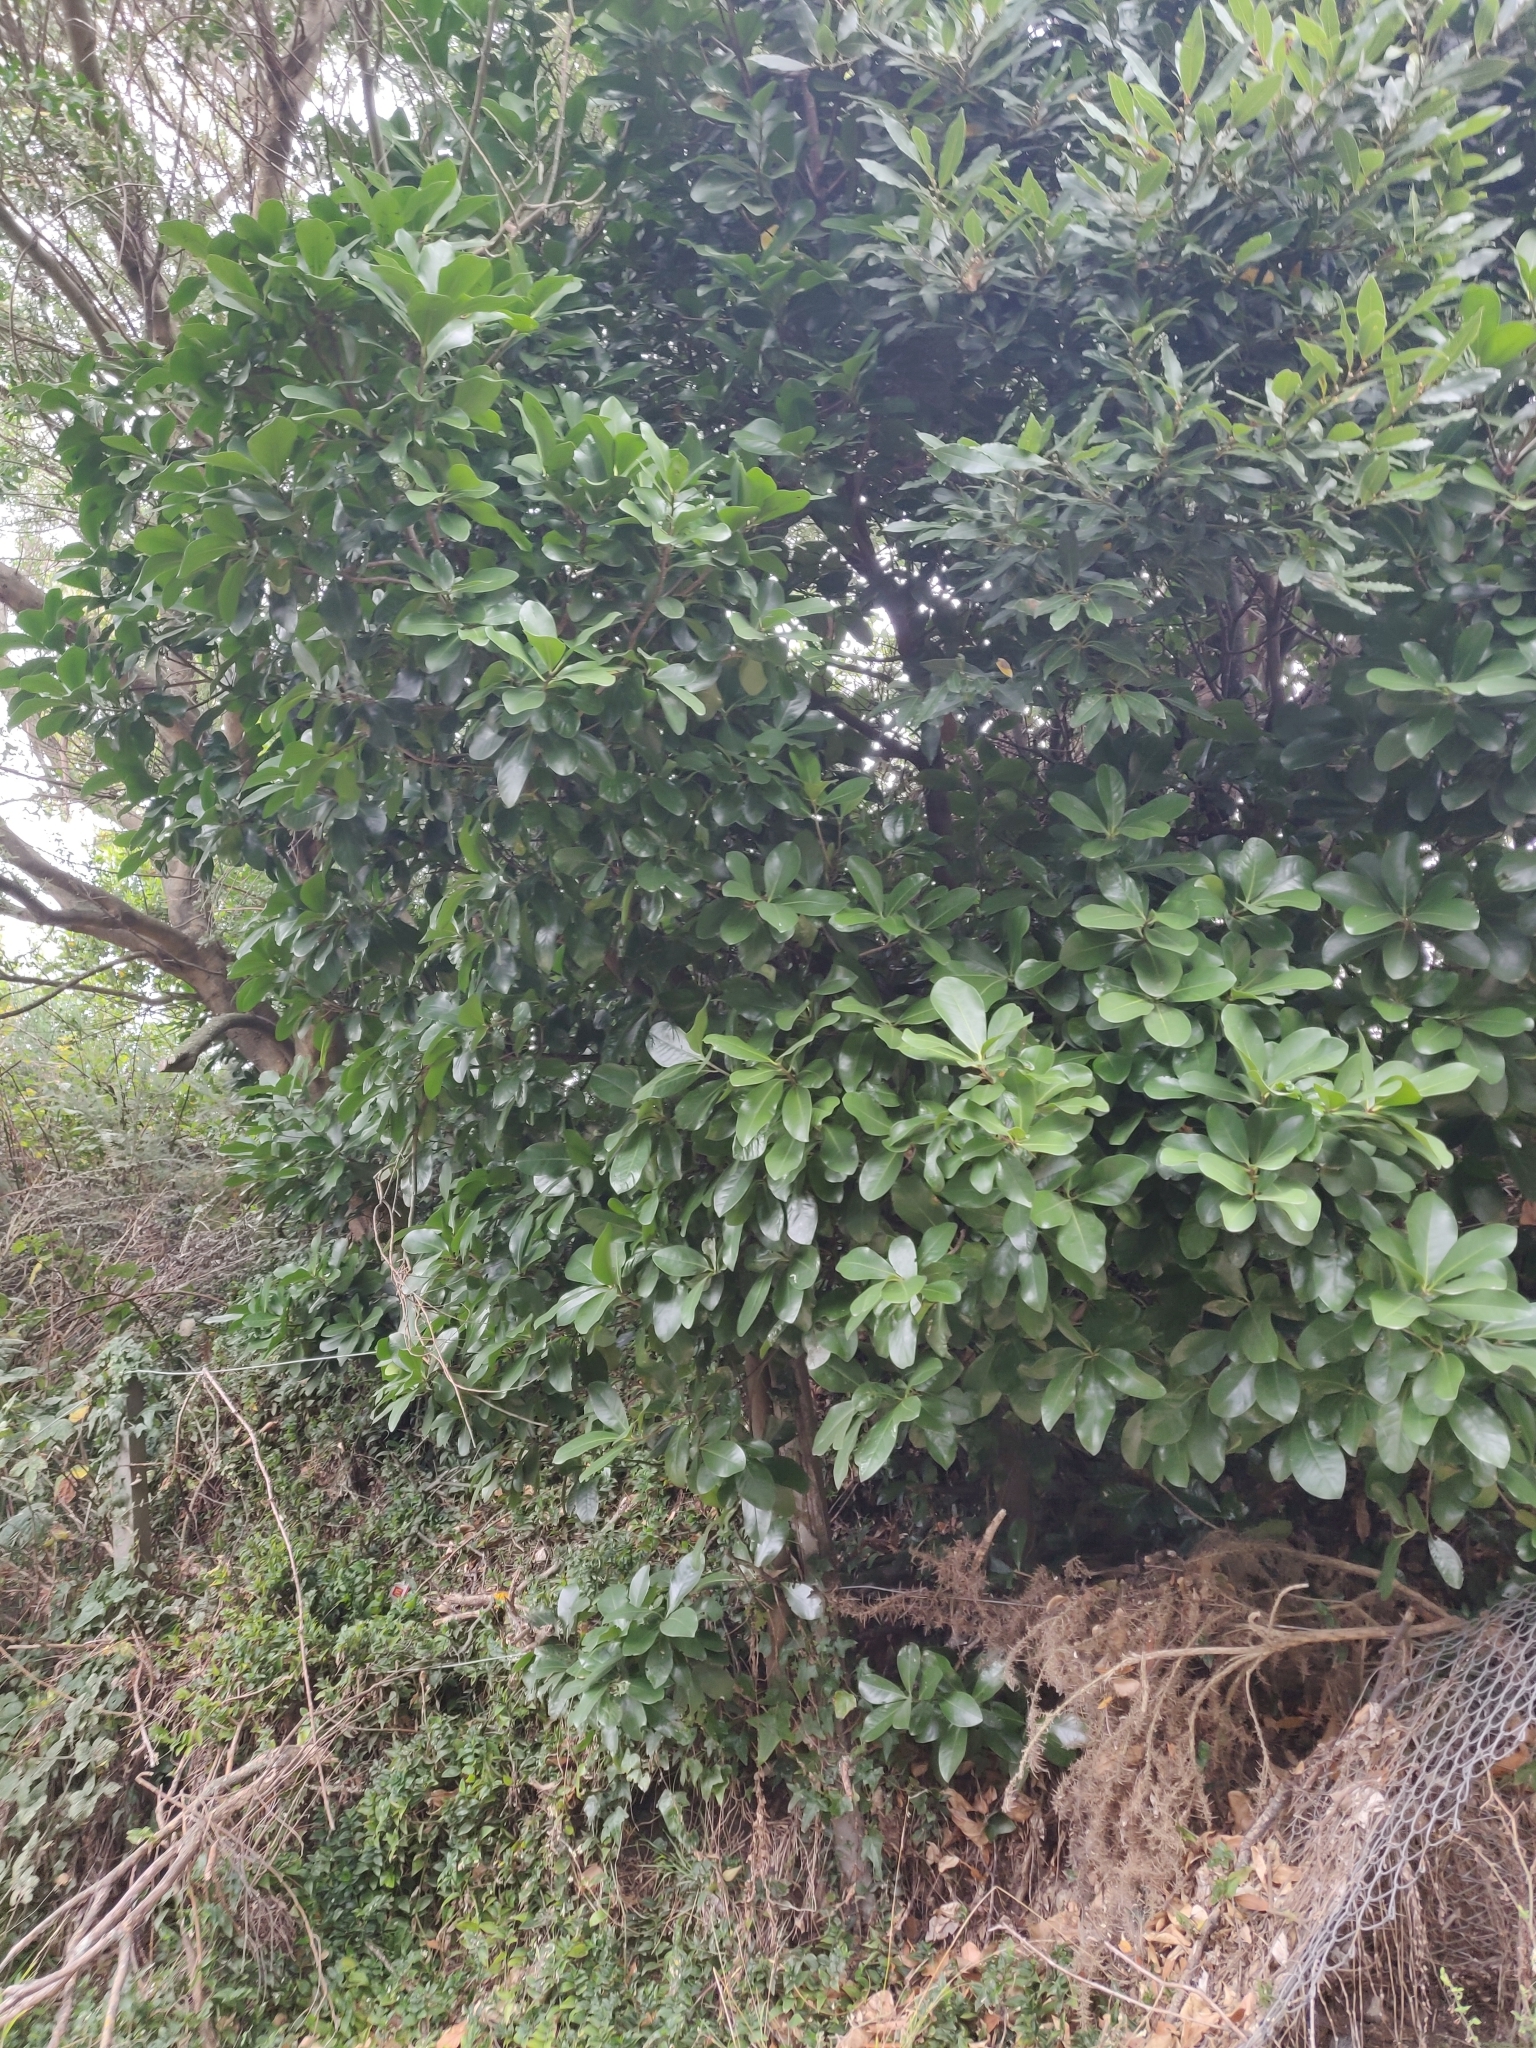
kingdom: Plantae
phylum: Tracheophyta
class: Magnoliopsida
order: Cucurbitales
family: Corynocarpaceae
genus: Corynocarpus
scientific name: Corynocarpus laevigatus
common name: New zealand laurel
